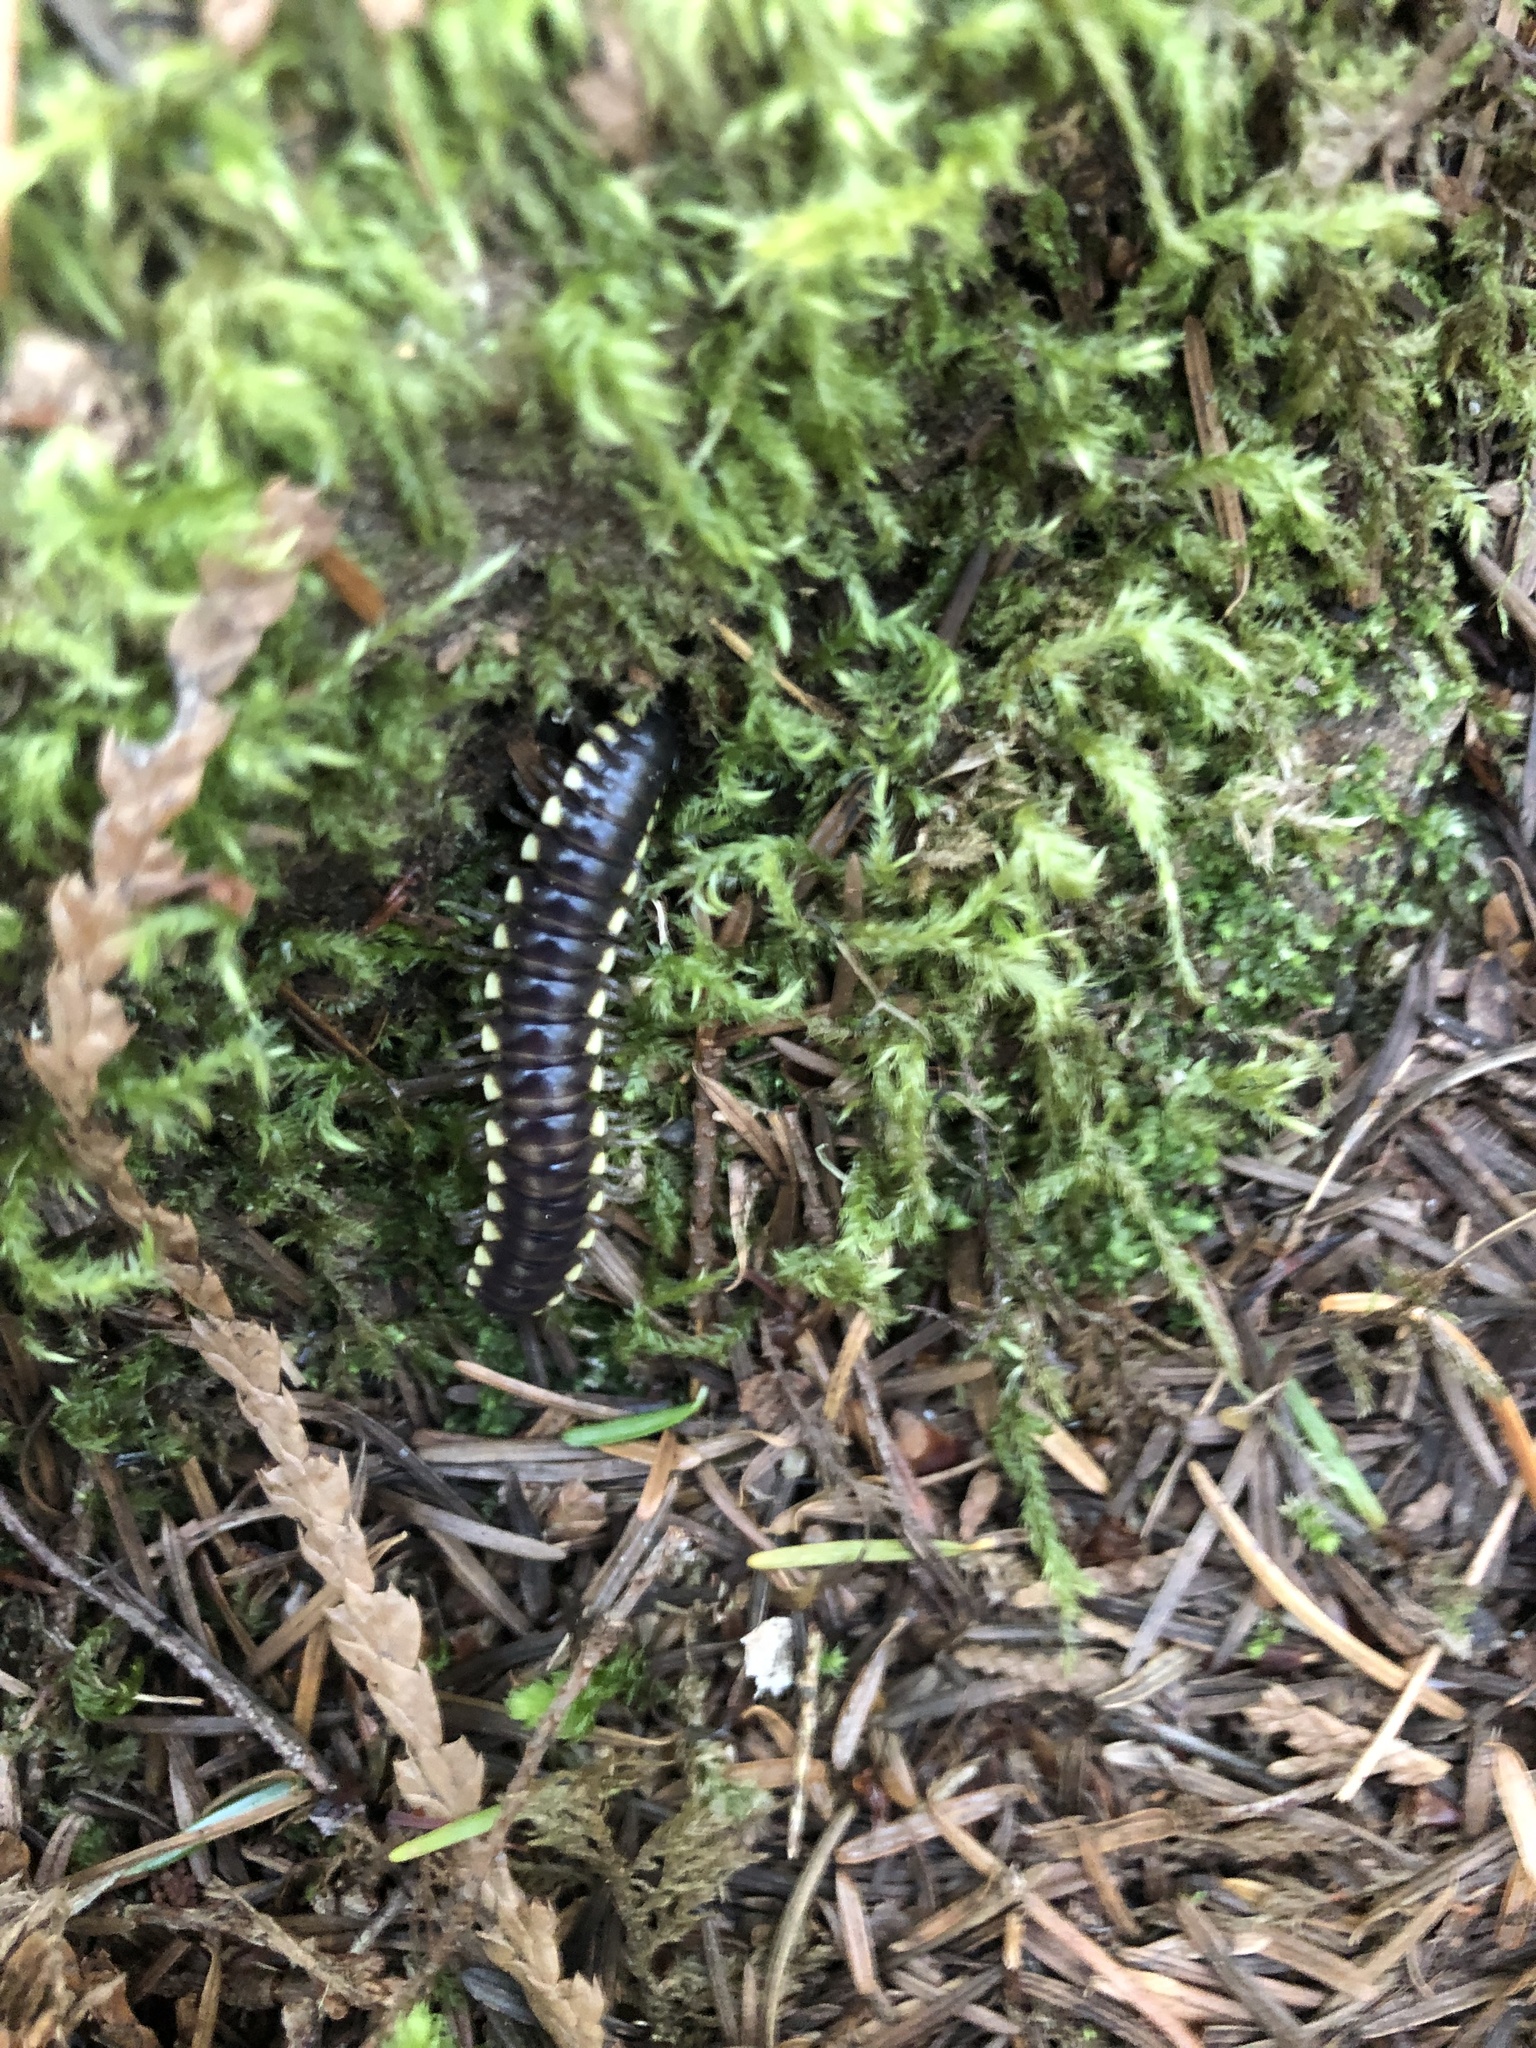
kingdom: Animalia
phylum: Arthropoda
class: Diplopoda
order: Polydesmida
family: Xystodesmidae
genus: Harpaphe
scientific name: Harpaphe haydeniana
